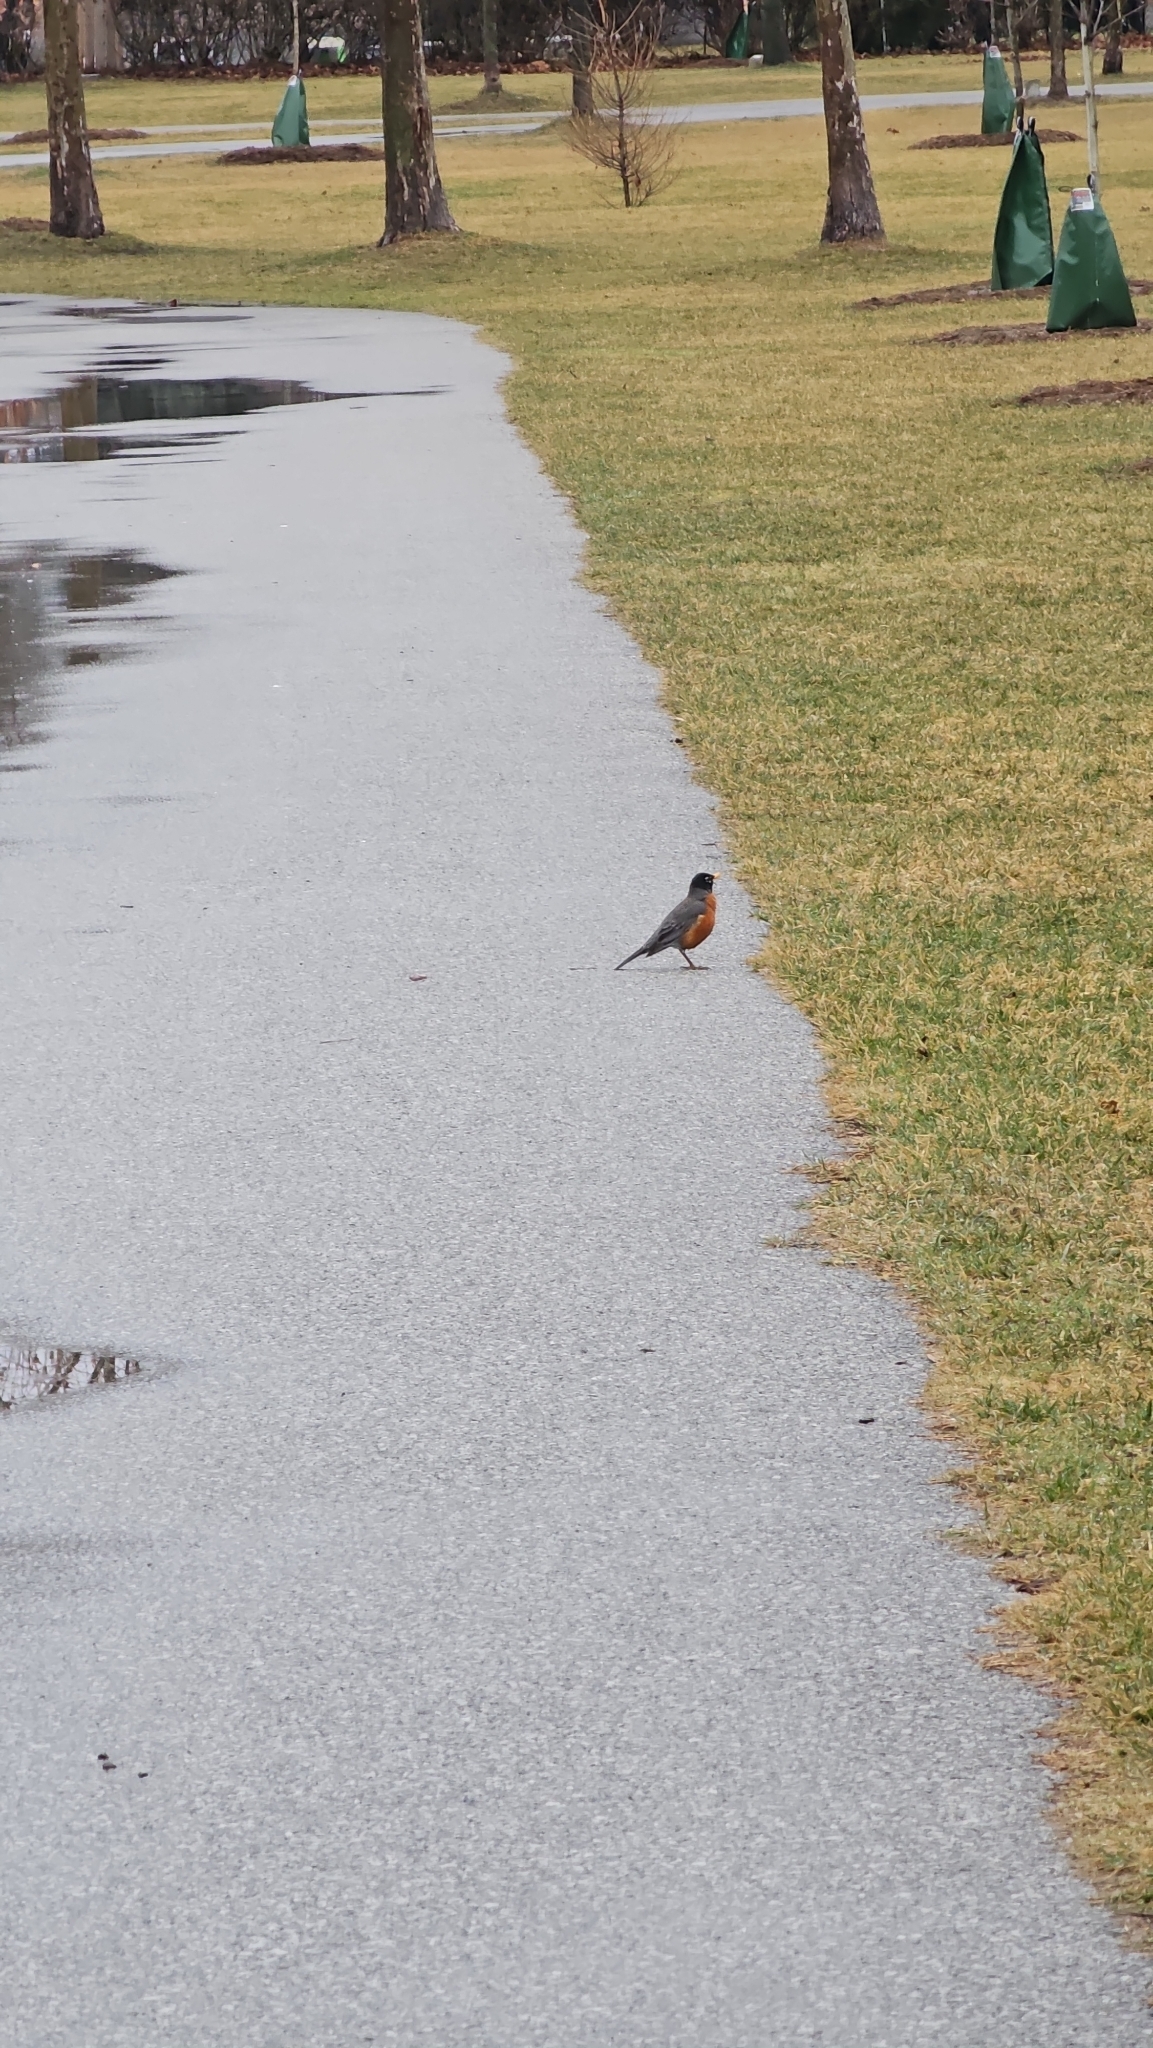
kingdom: Animalia
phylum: Chordata
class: Aves
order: Passeriformes
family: Turdidae
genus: Turdus
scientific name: Turdus migratorius
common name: American robin
